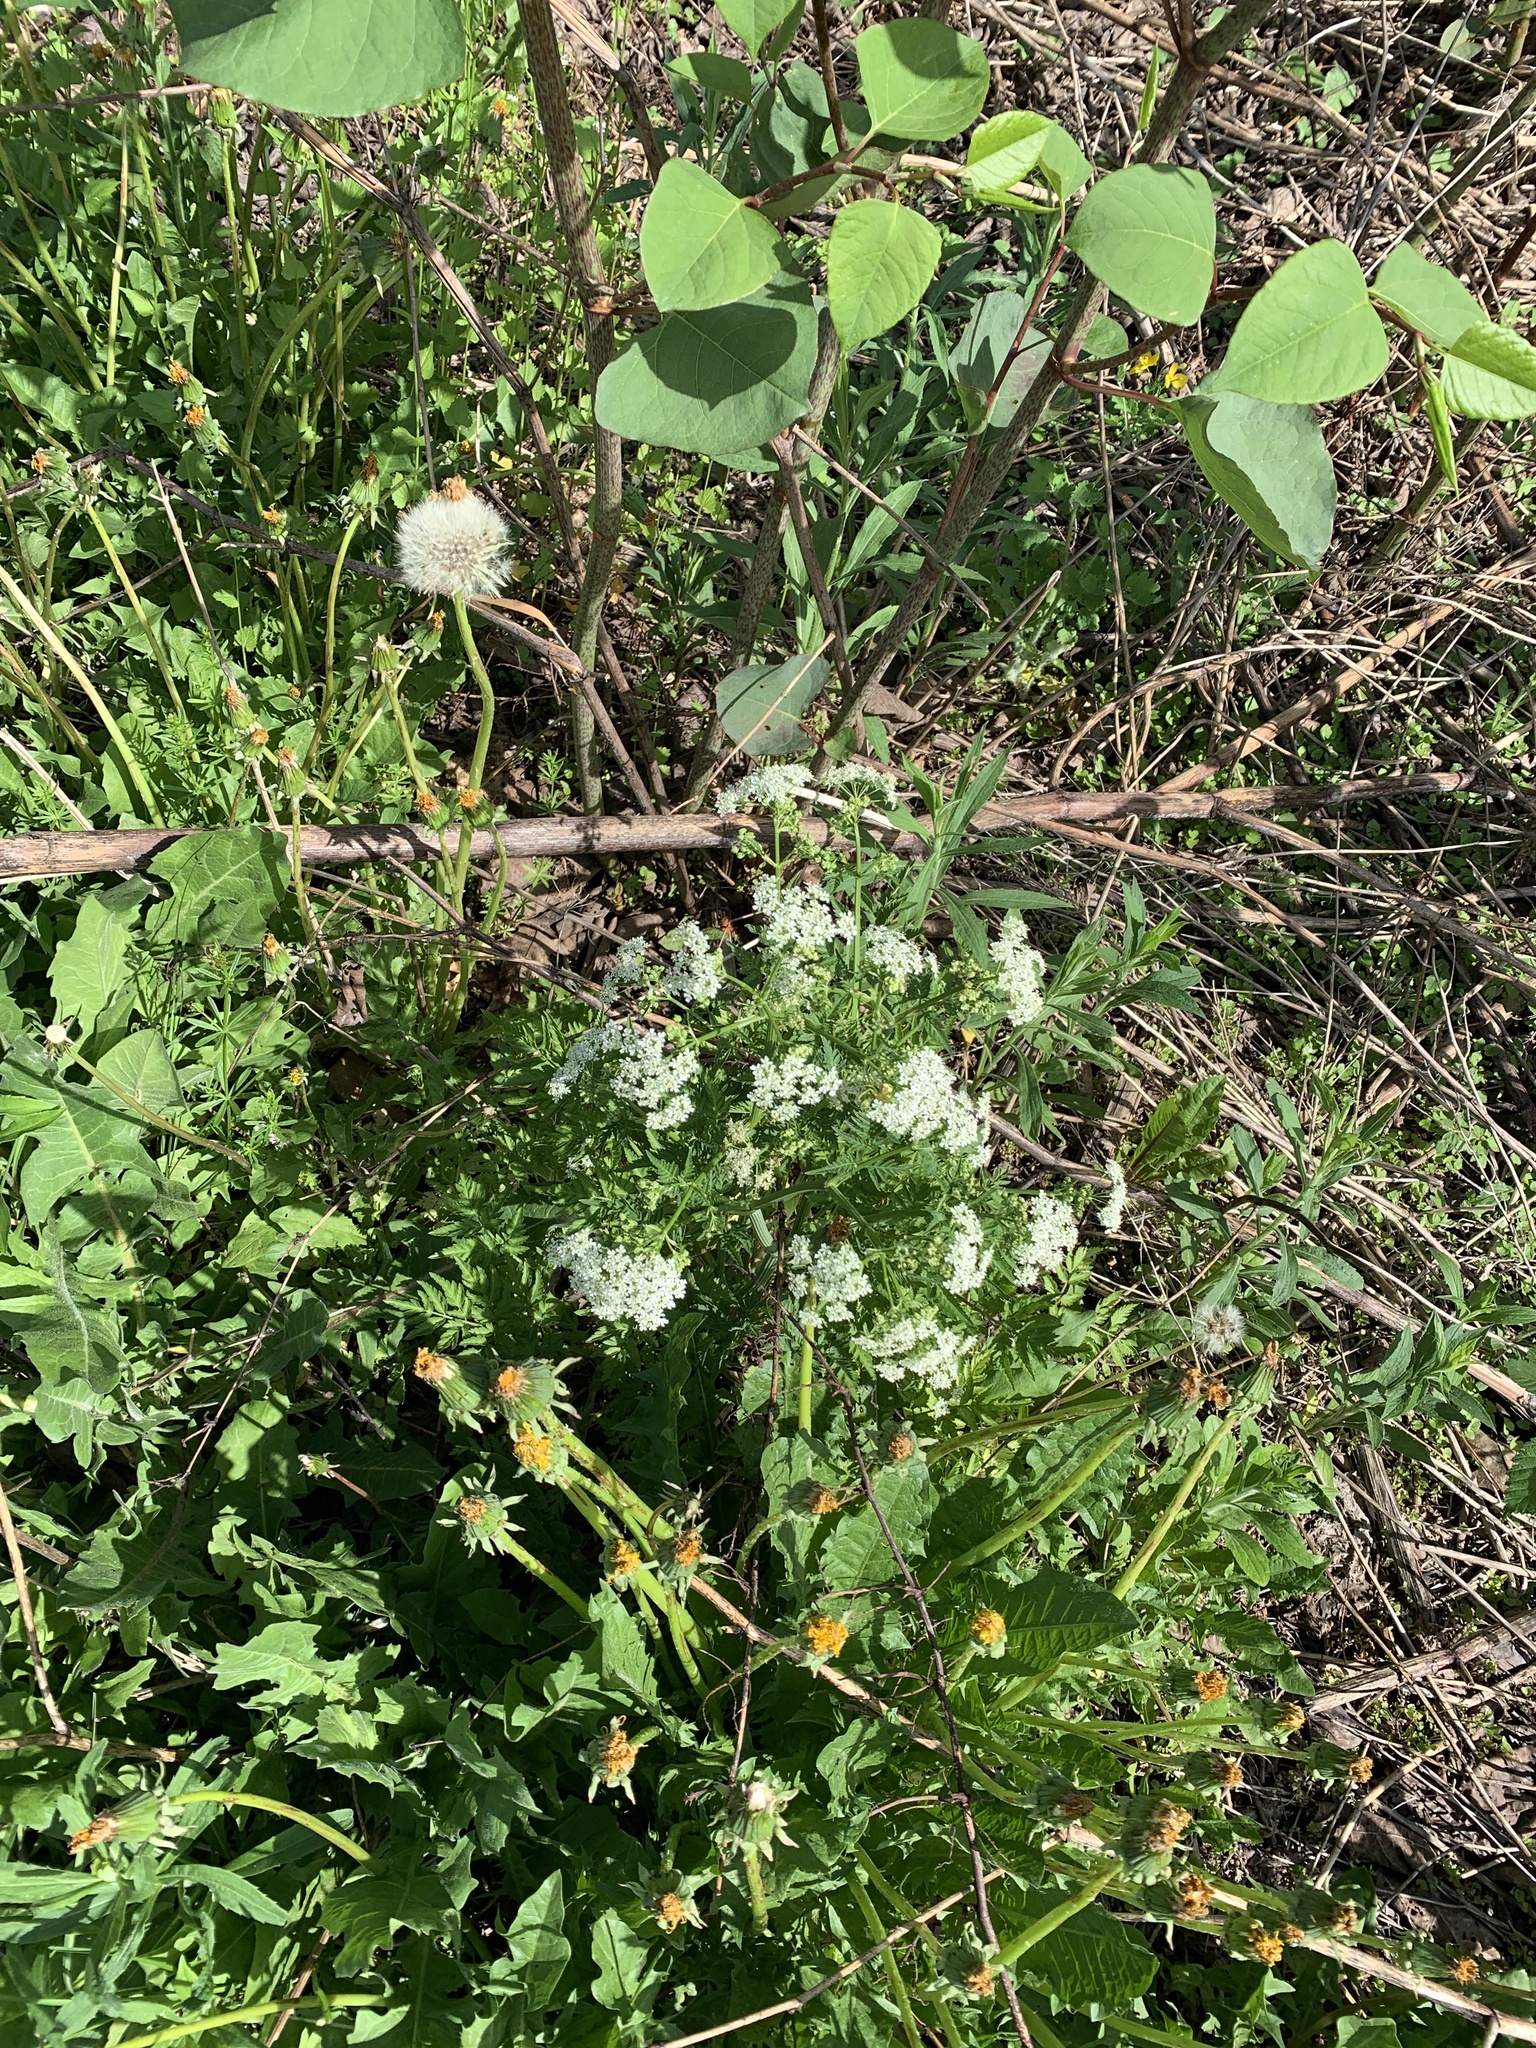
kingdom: Plantae
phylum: Tracheophyta
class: Magnoliopsida
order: Apiales
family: Apiaceae
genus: Anthriscus
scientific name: Anthriscus sylvestris
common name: Cow parsley
